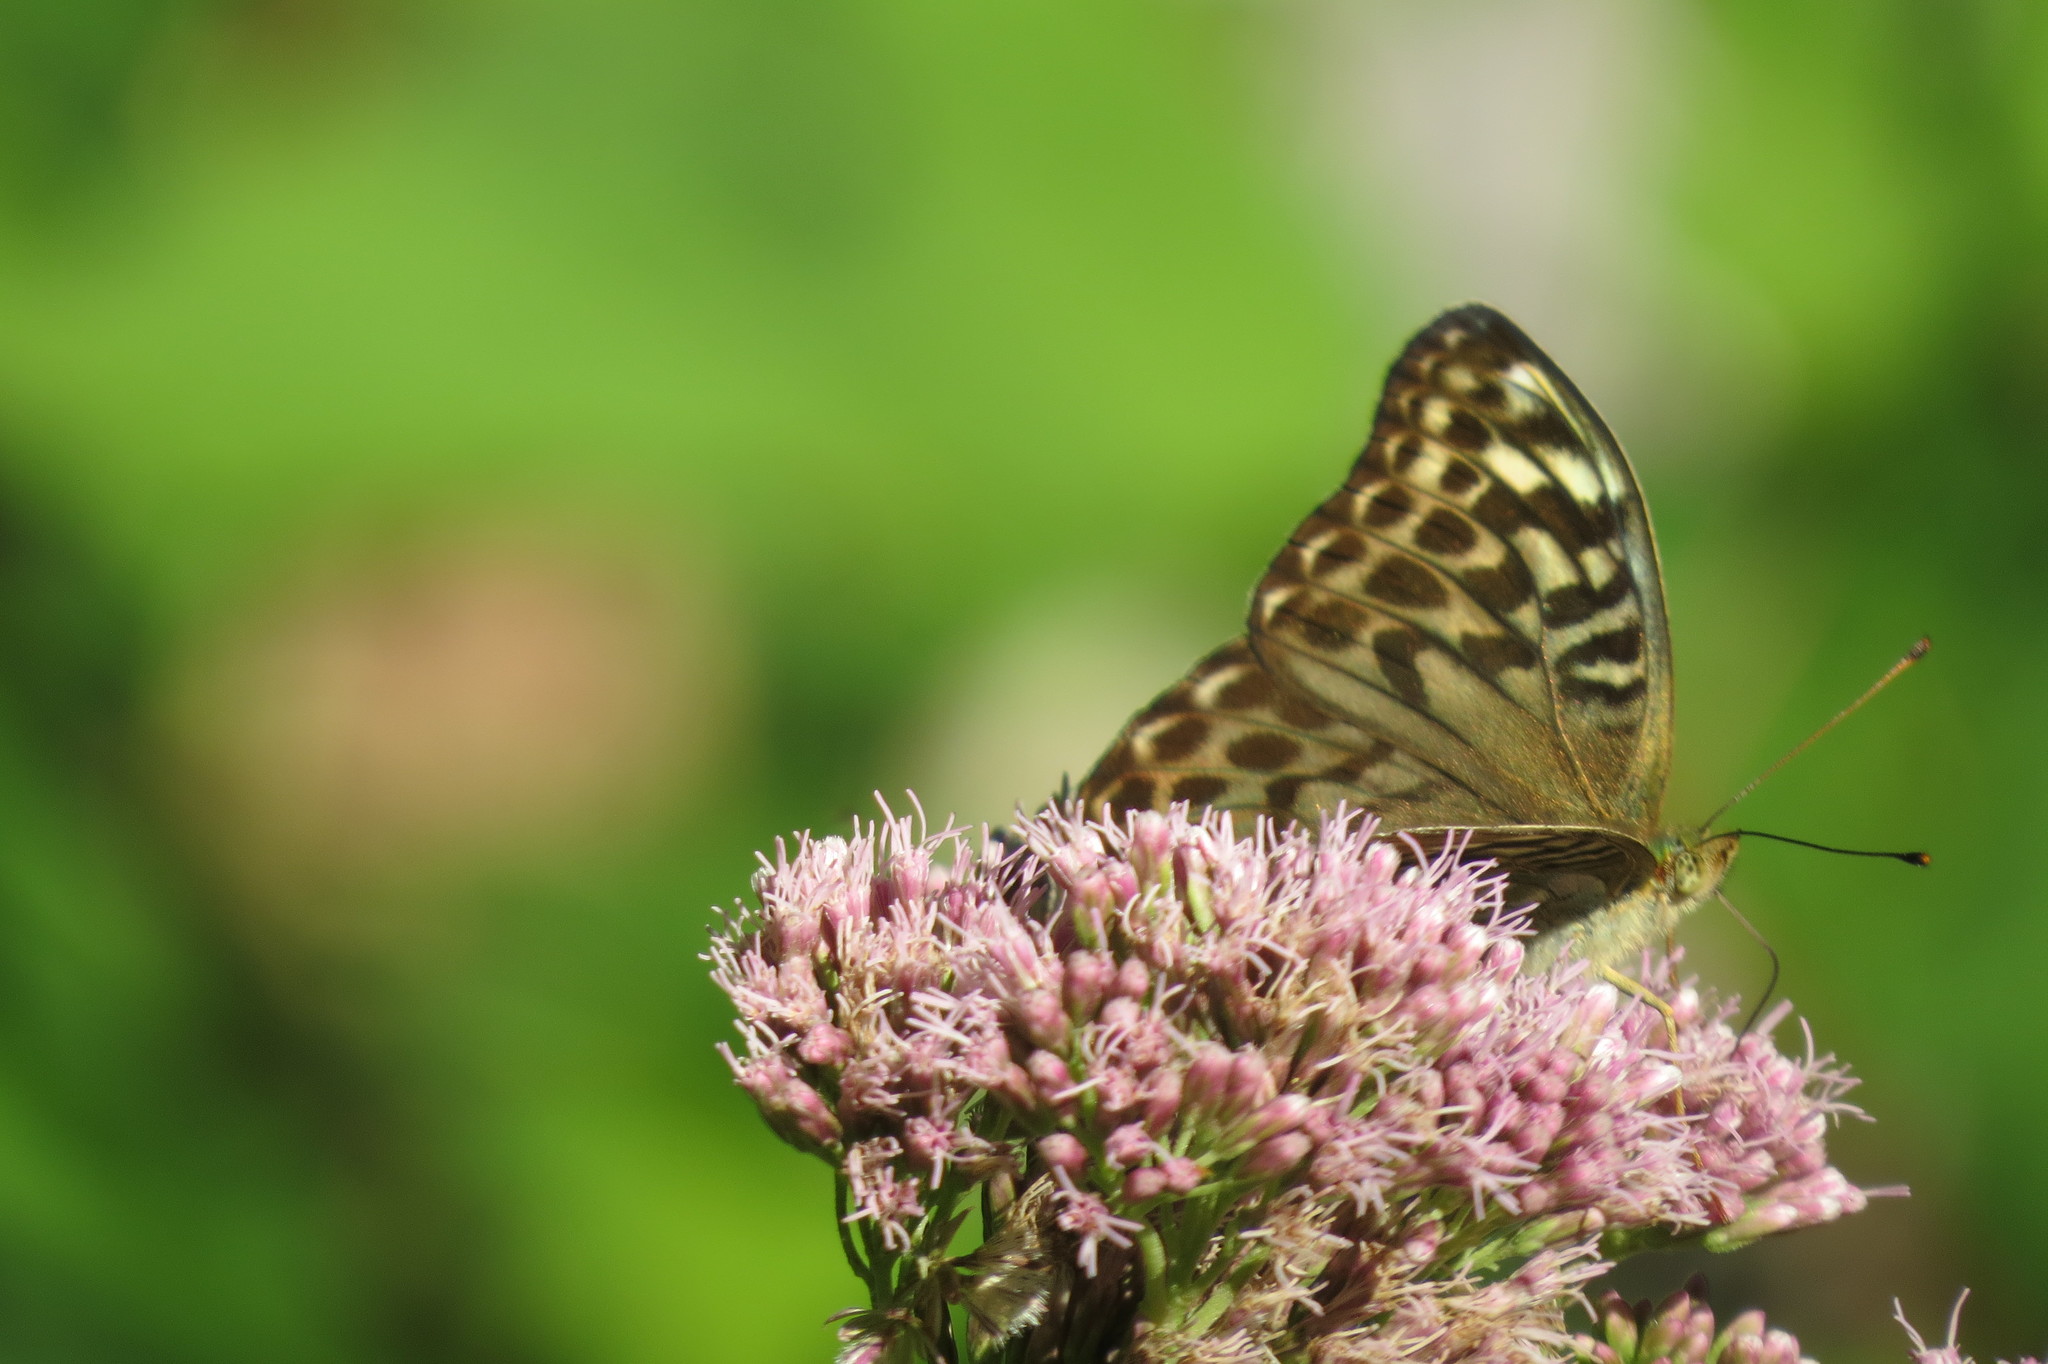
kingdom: Animalia
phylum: Arthropoda
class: Insecta
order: Lepidoptera
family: Nymphalidae
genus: Argynnis
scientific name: Argynnis paphia
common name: Silver-washed fritillary
